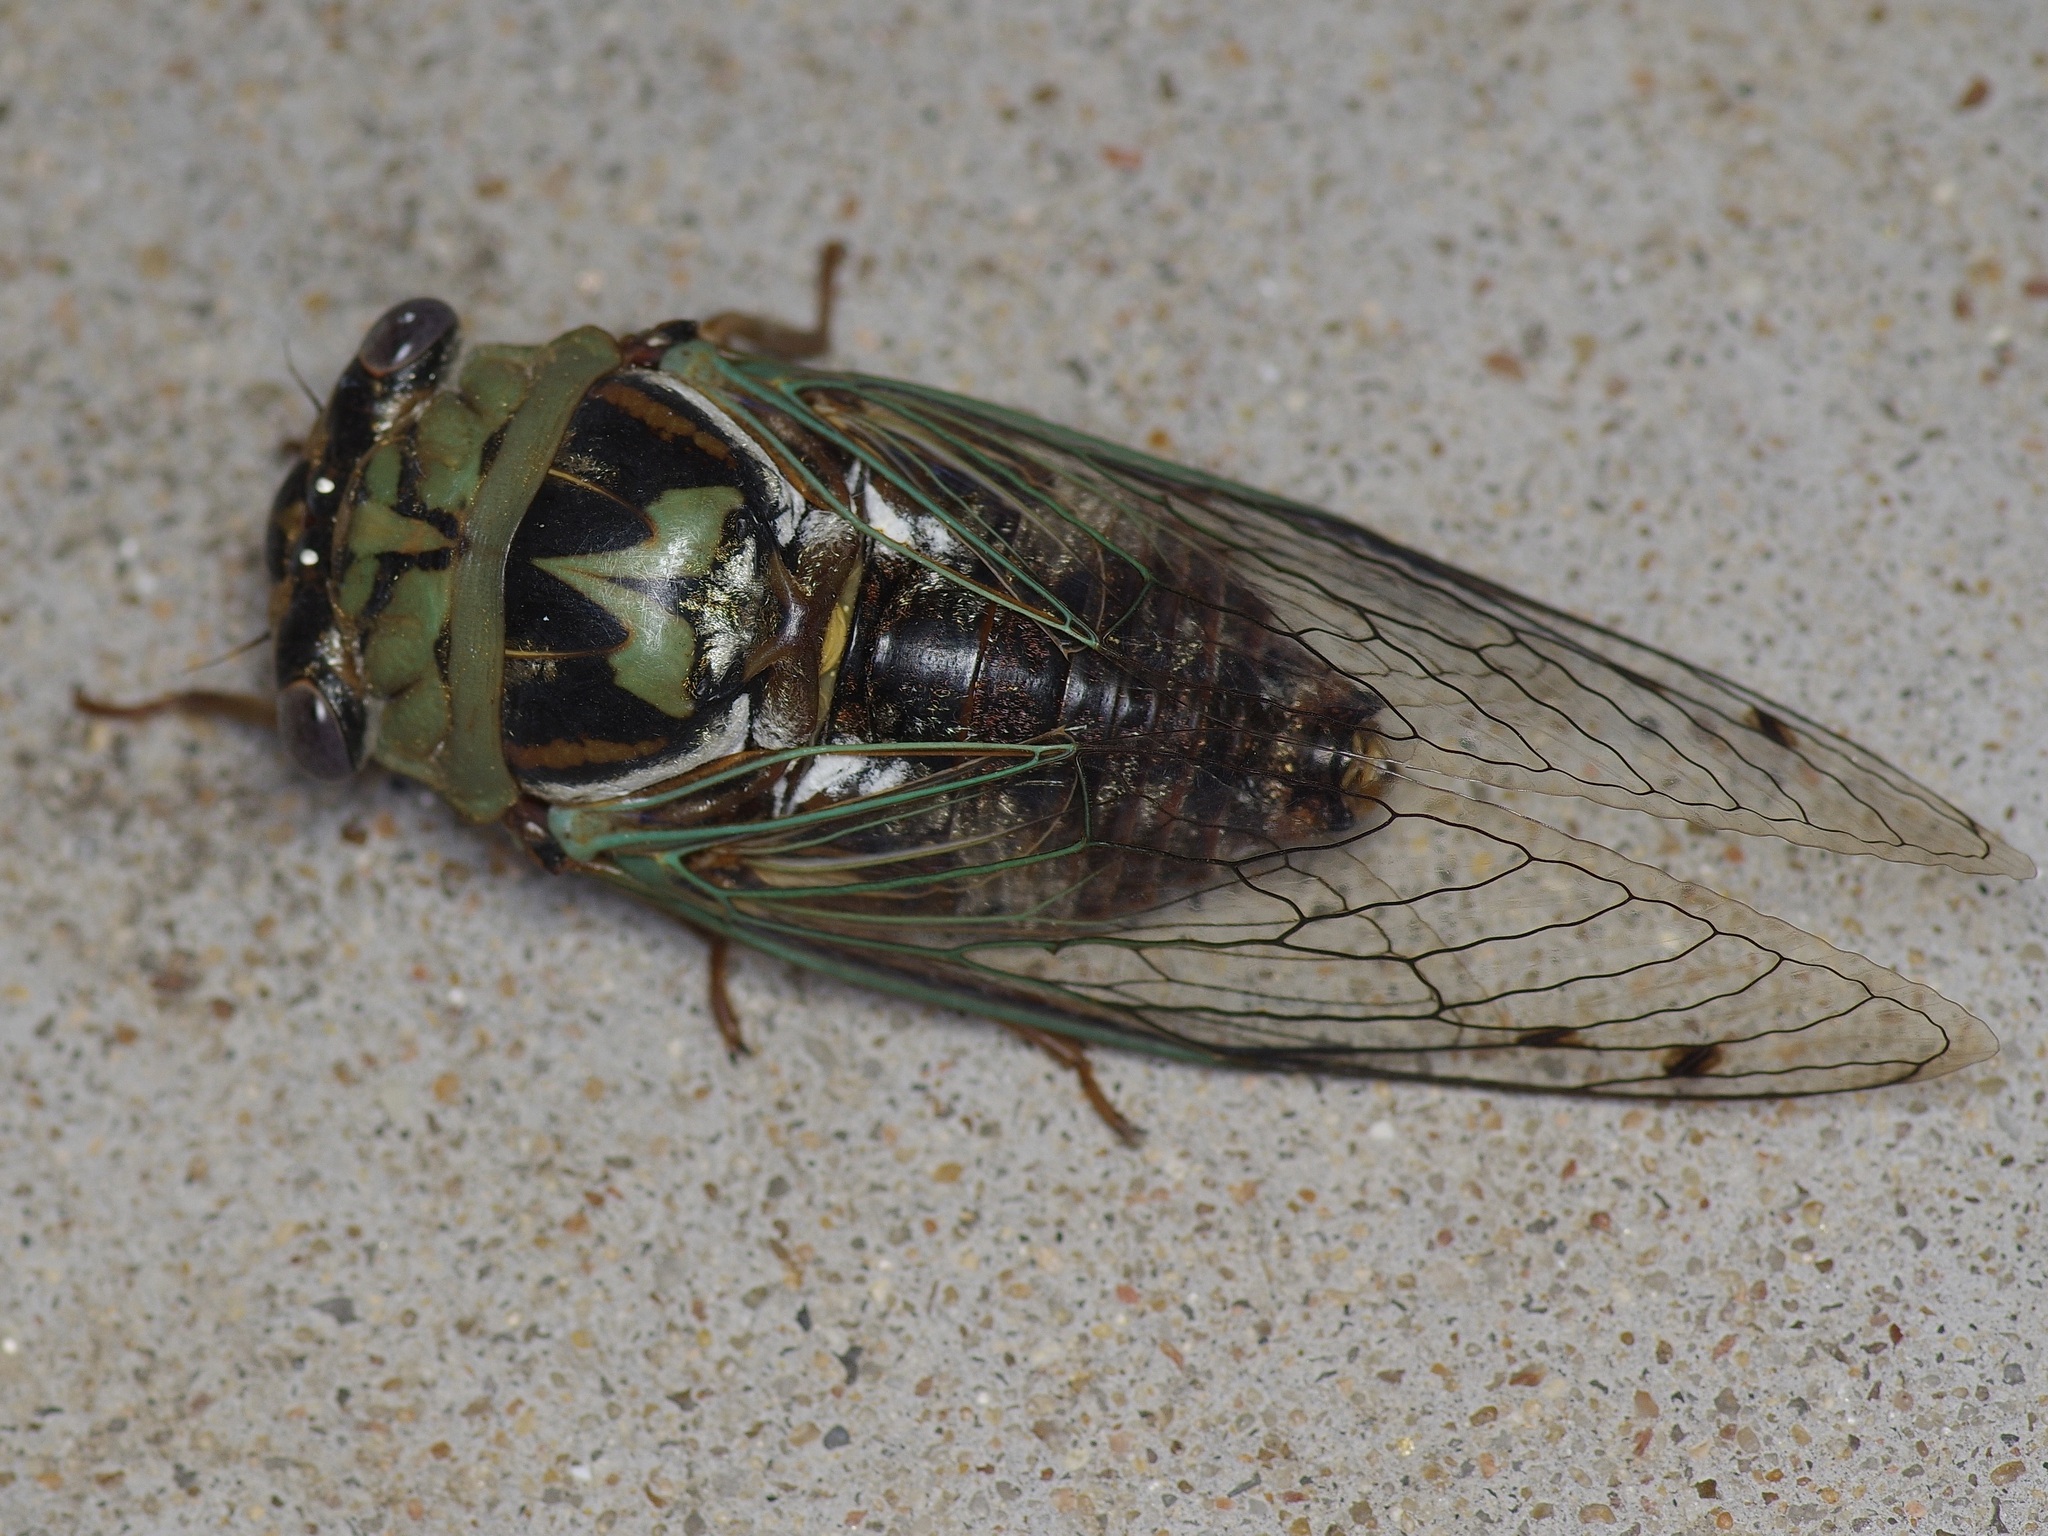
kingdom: Animalia
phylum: Arthropoda
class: Insecta
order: Hemiptera
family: Cicadidae
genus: Megatibicen
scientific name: Megatibicen resh
